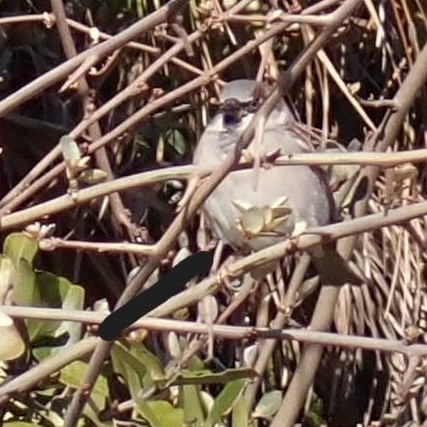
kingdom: Animalia
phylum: Chordata
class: Aves
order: Passeriformes
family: Passeridae
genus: Passer
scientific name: Passer domesticus
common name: House sparrow
